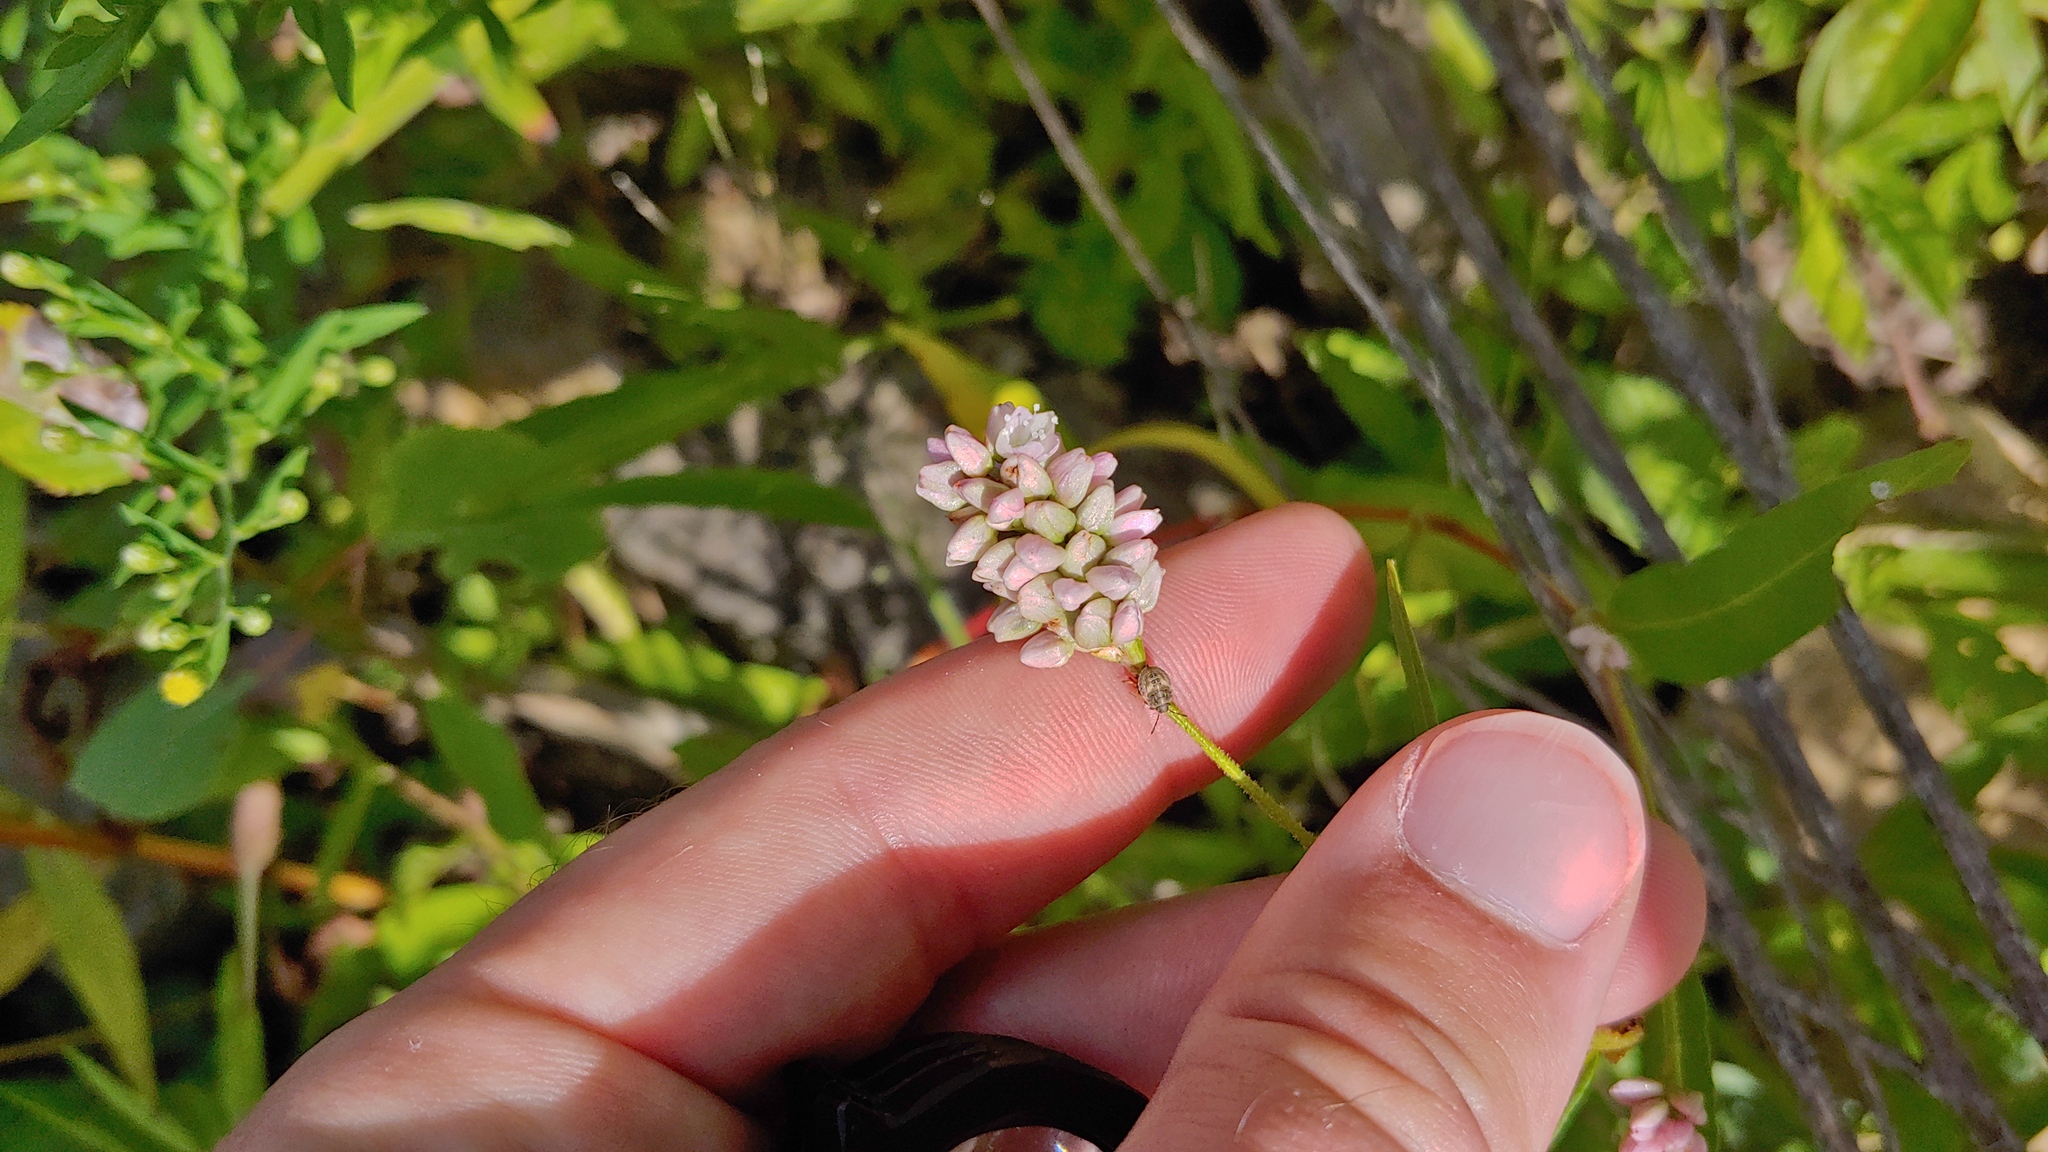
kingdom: Plantae
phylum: Tracheophyta
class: Magnoliopsida
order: Caryophyllales
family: Polygonaceae
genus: Persicaria
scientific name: Persicaria pensylvanica
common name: Pinkweed
